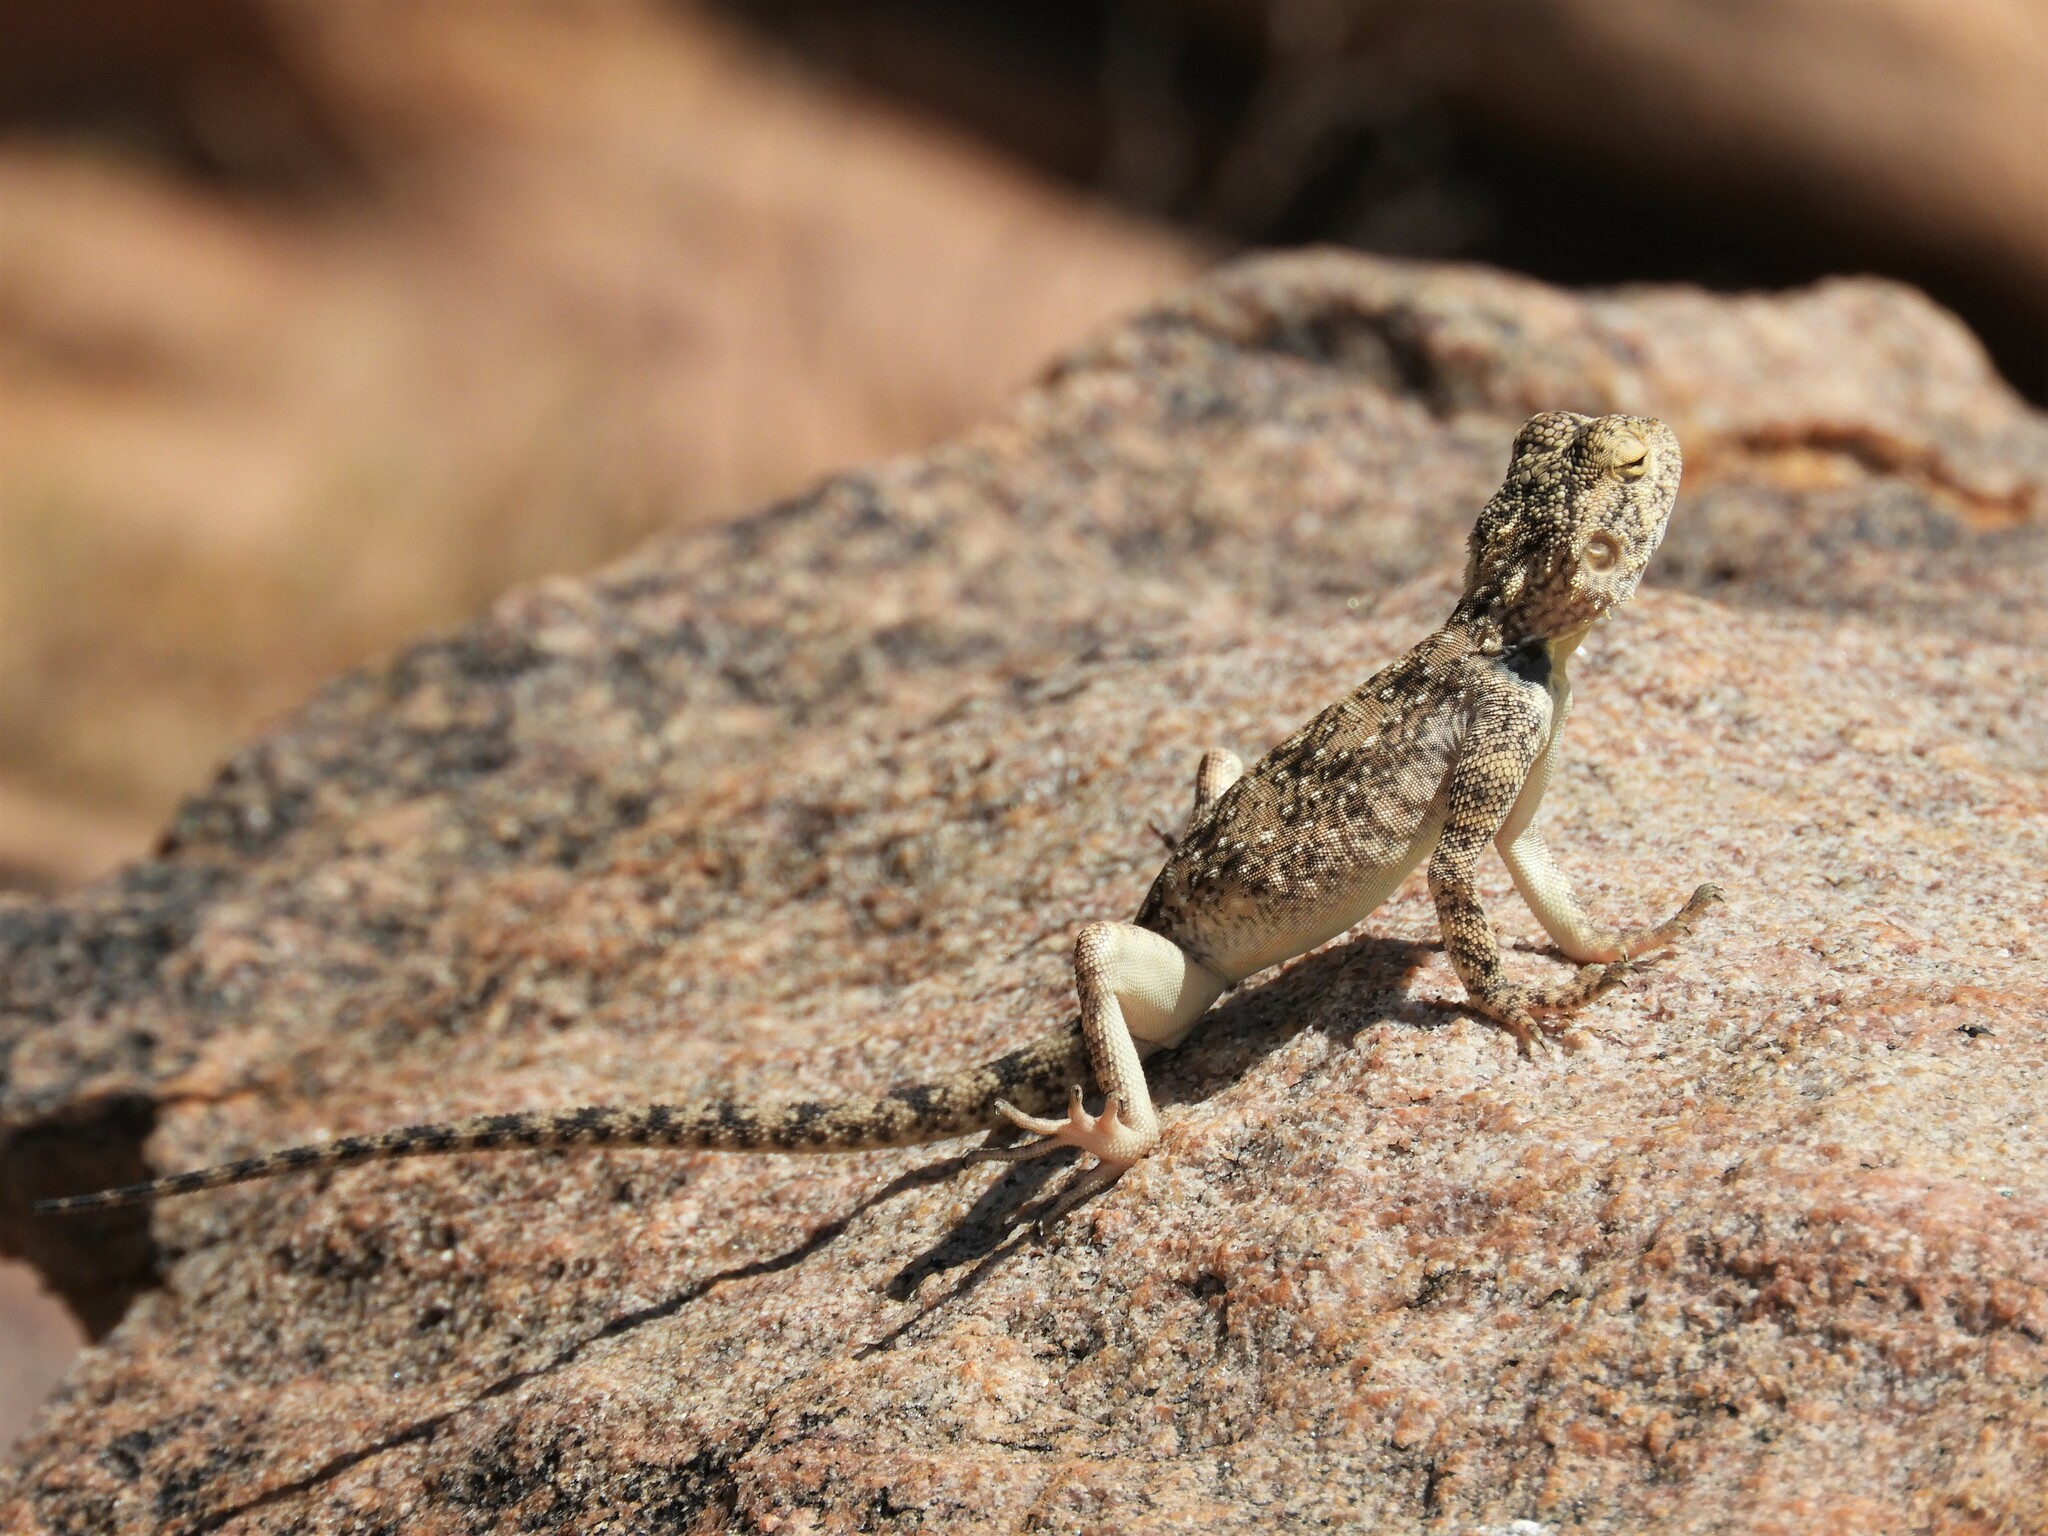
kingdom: Animalia
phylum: Chordata
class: Squamata
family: Agamidae
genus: Agama
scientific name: Agama atra
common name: Southern african rock agama
